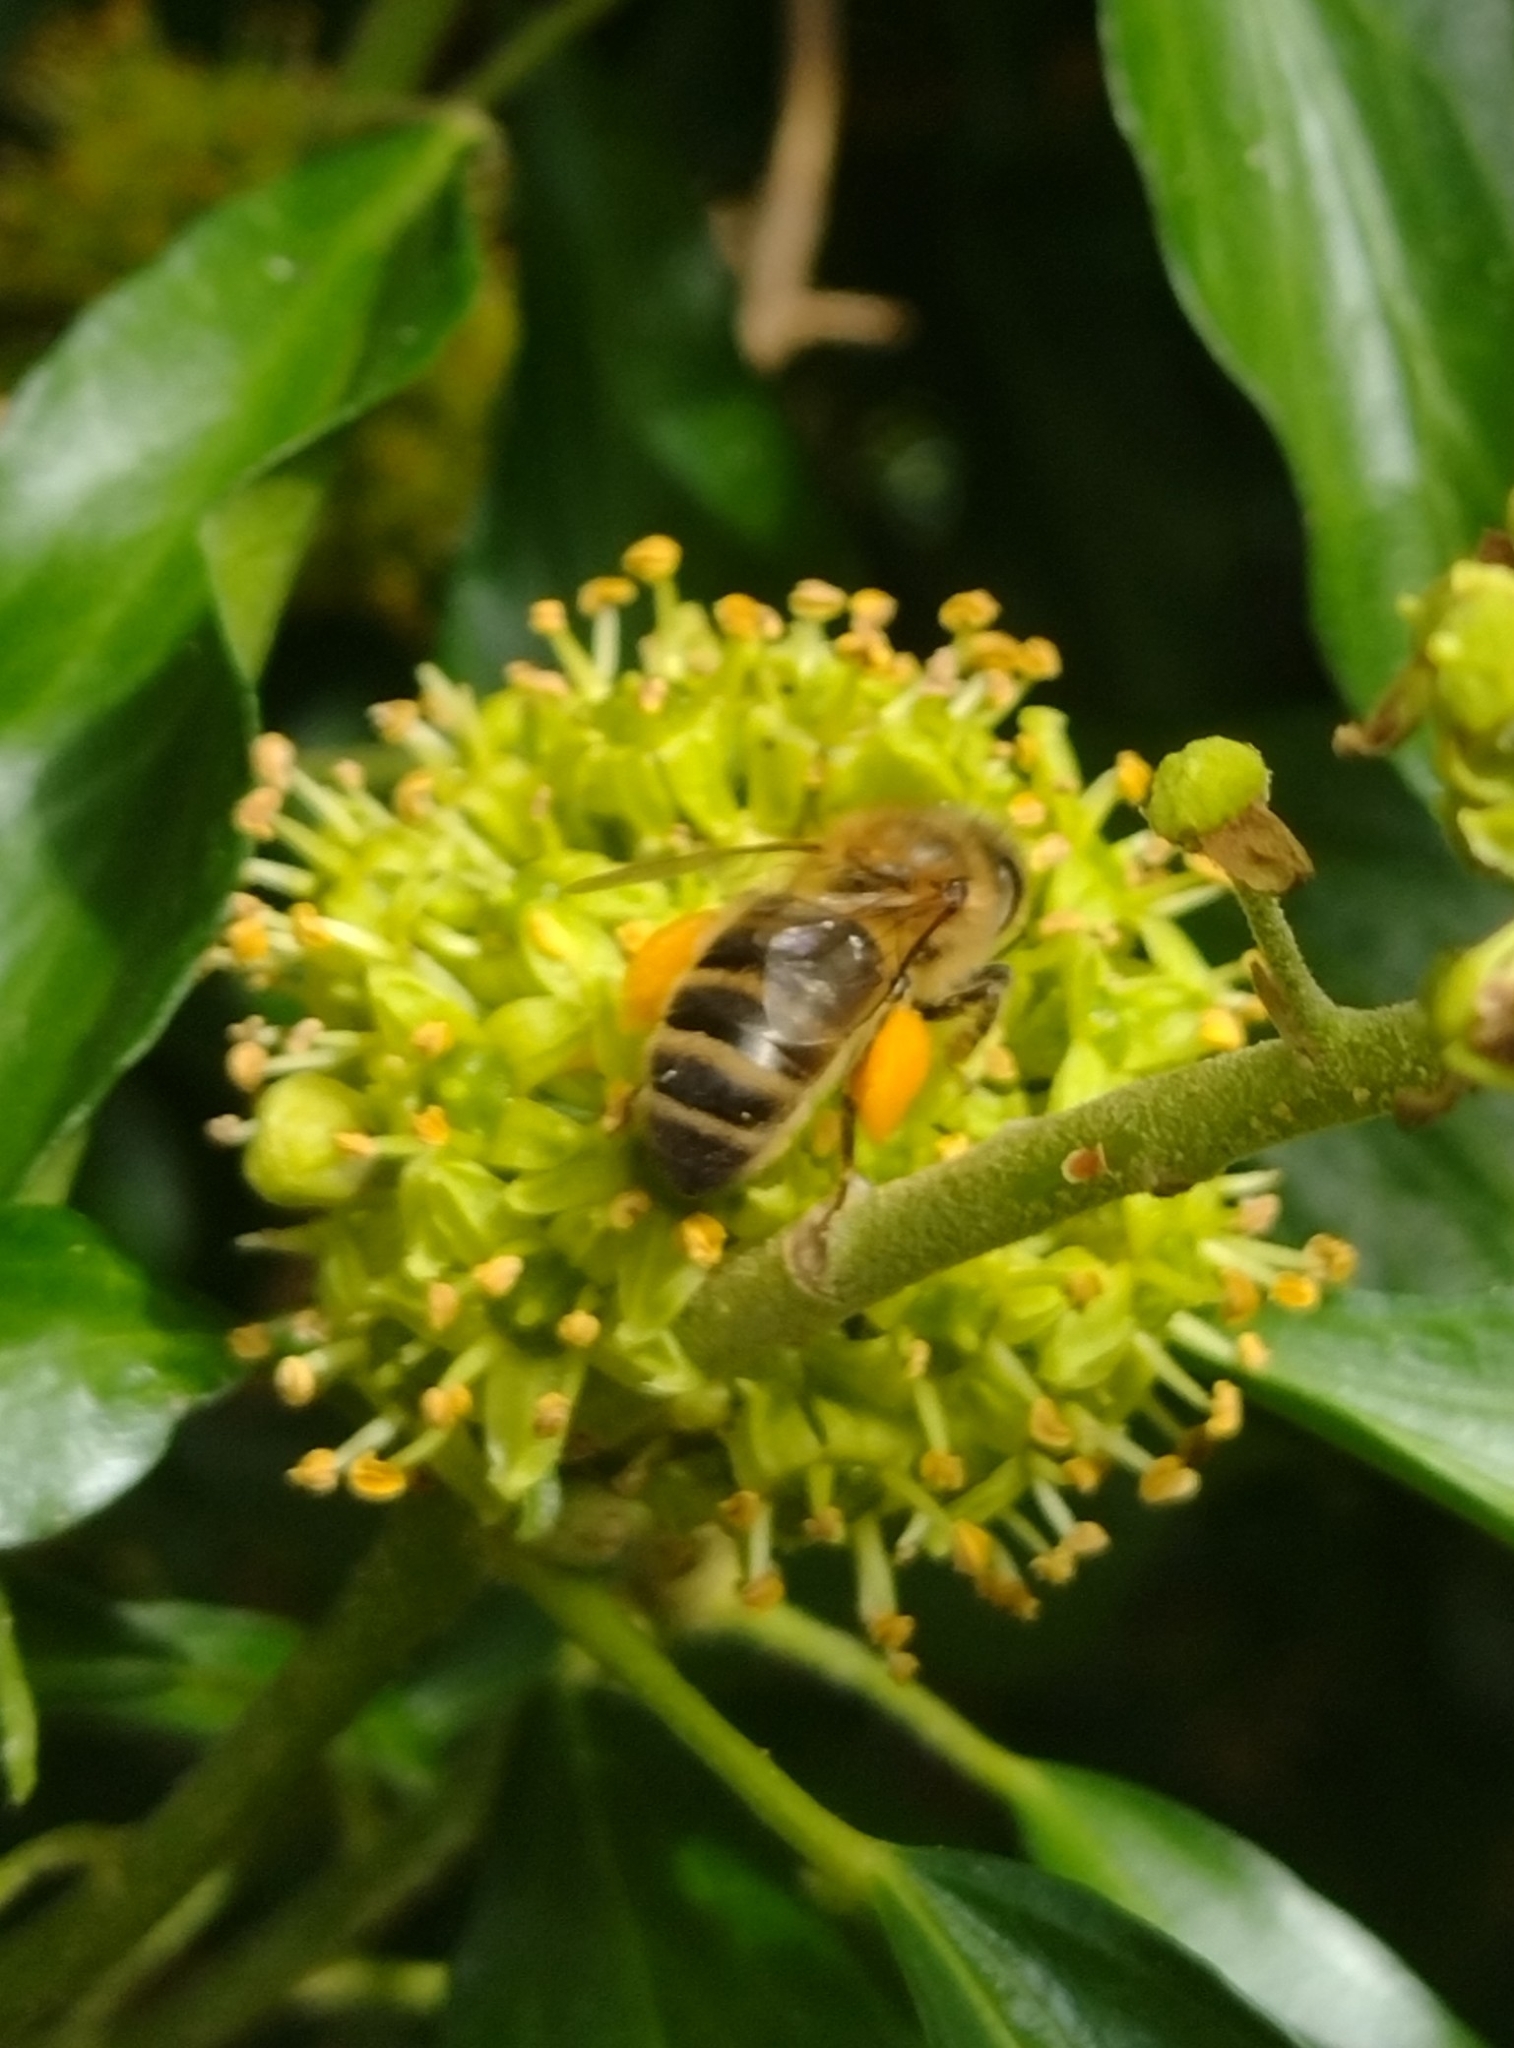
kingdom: Animalia
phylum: Arthropoda
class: Insecta
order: Hymenoptera
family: Apidae
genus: Apis
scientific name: Apis mellifera
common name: Honey bee
